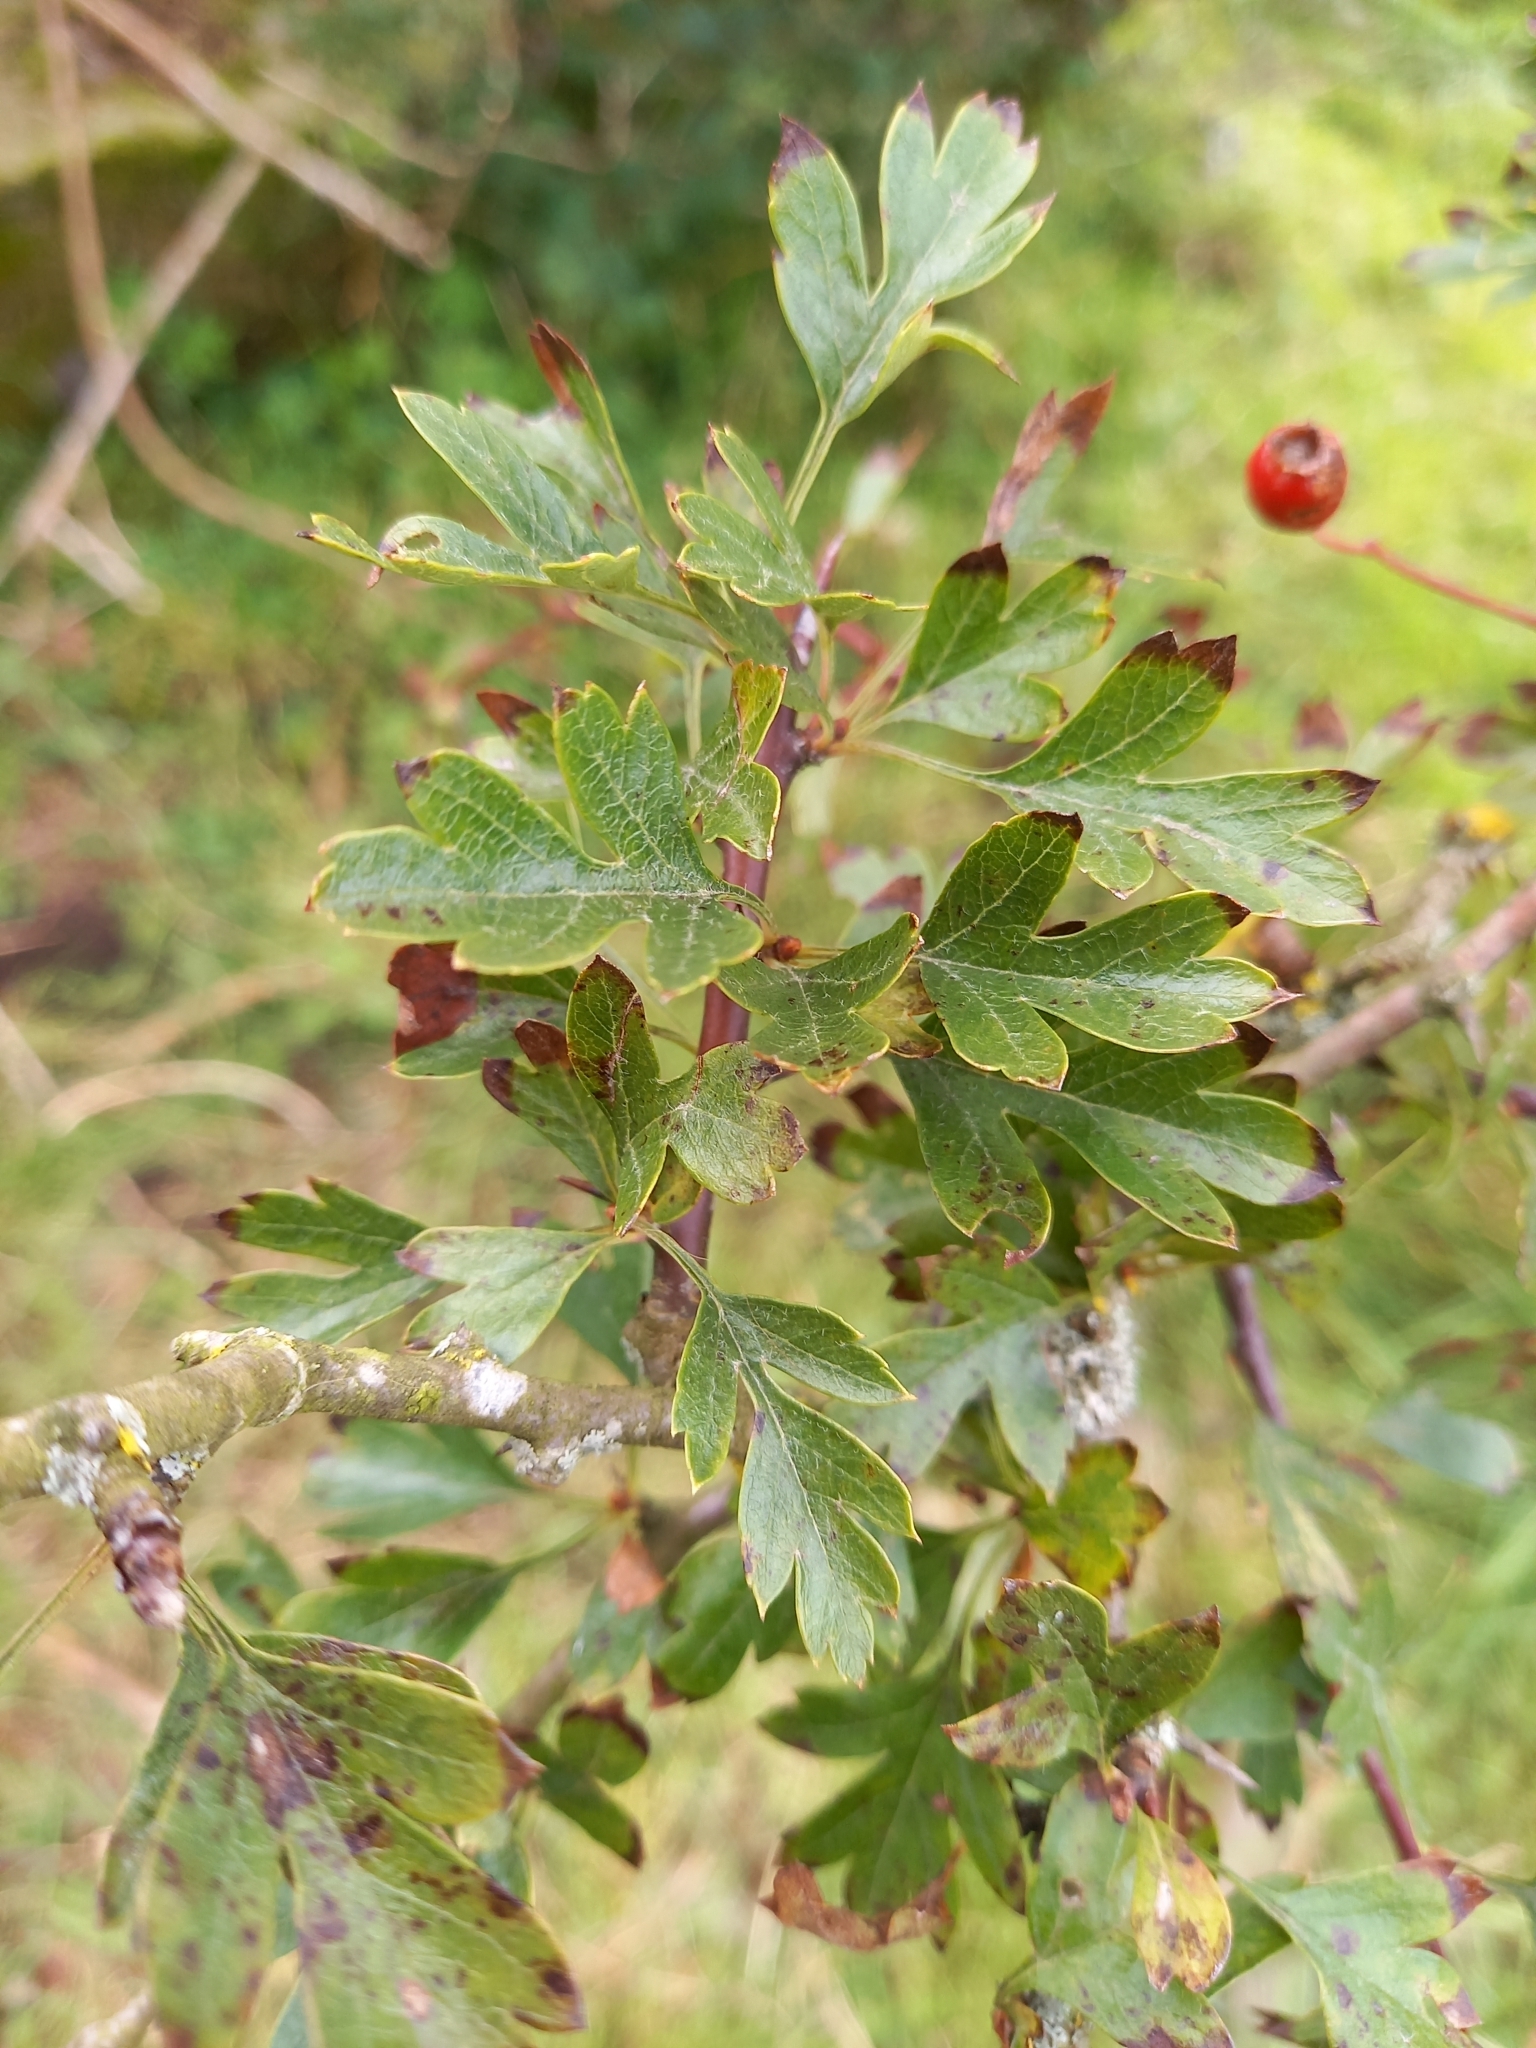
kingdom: Plantae
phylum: Tracheophyta
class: Magnoliopsida
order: Rosales
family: Rosaceae
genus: Crataegus
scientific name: Crataegus monogyna
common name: Hawthorn
